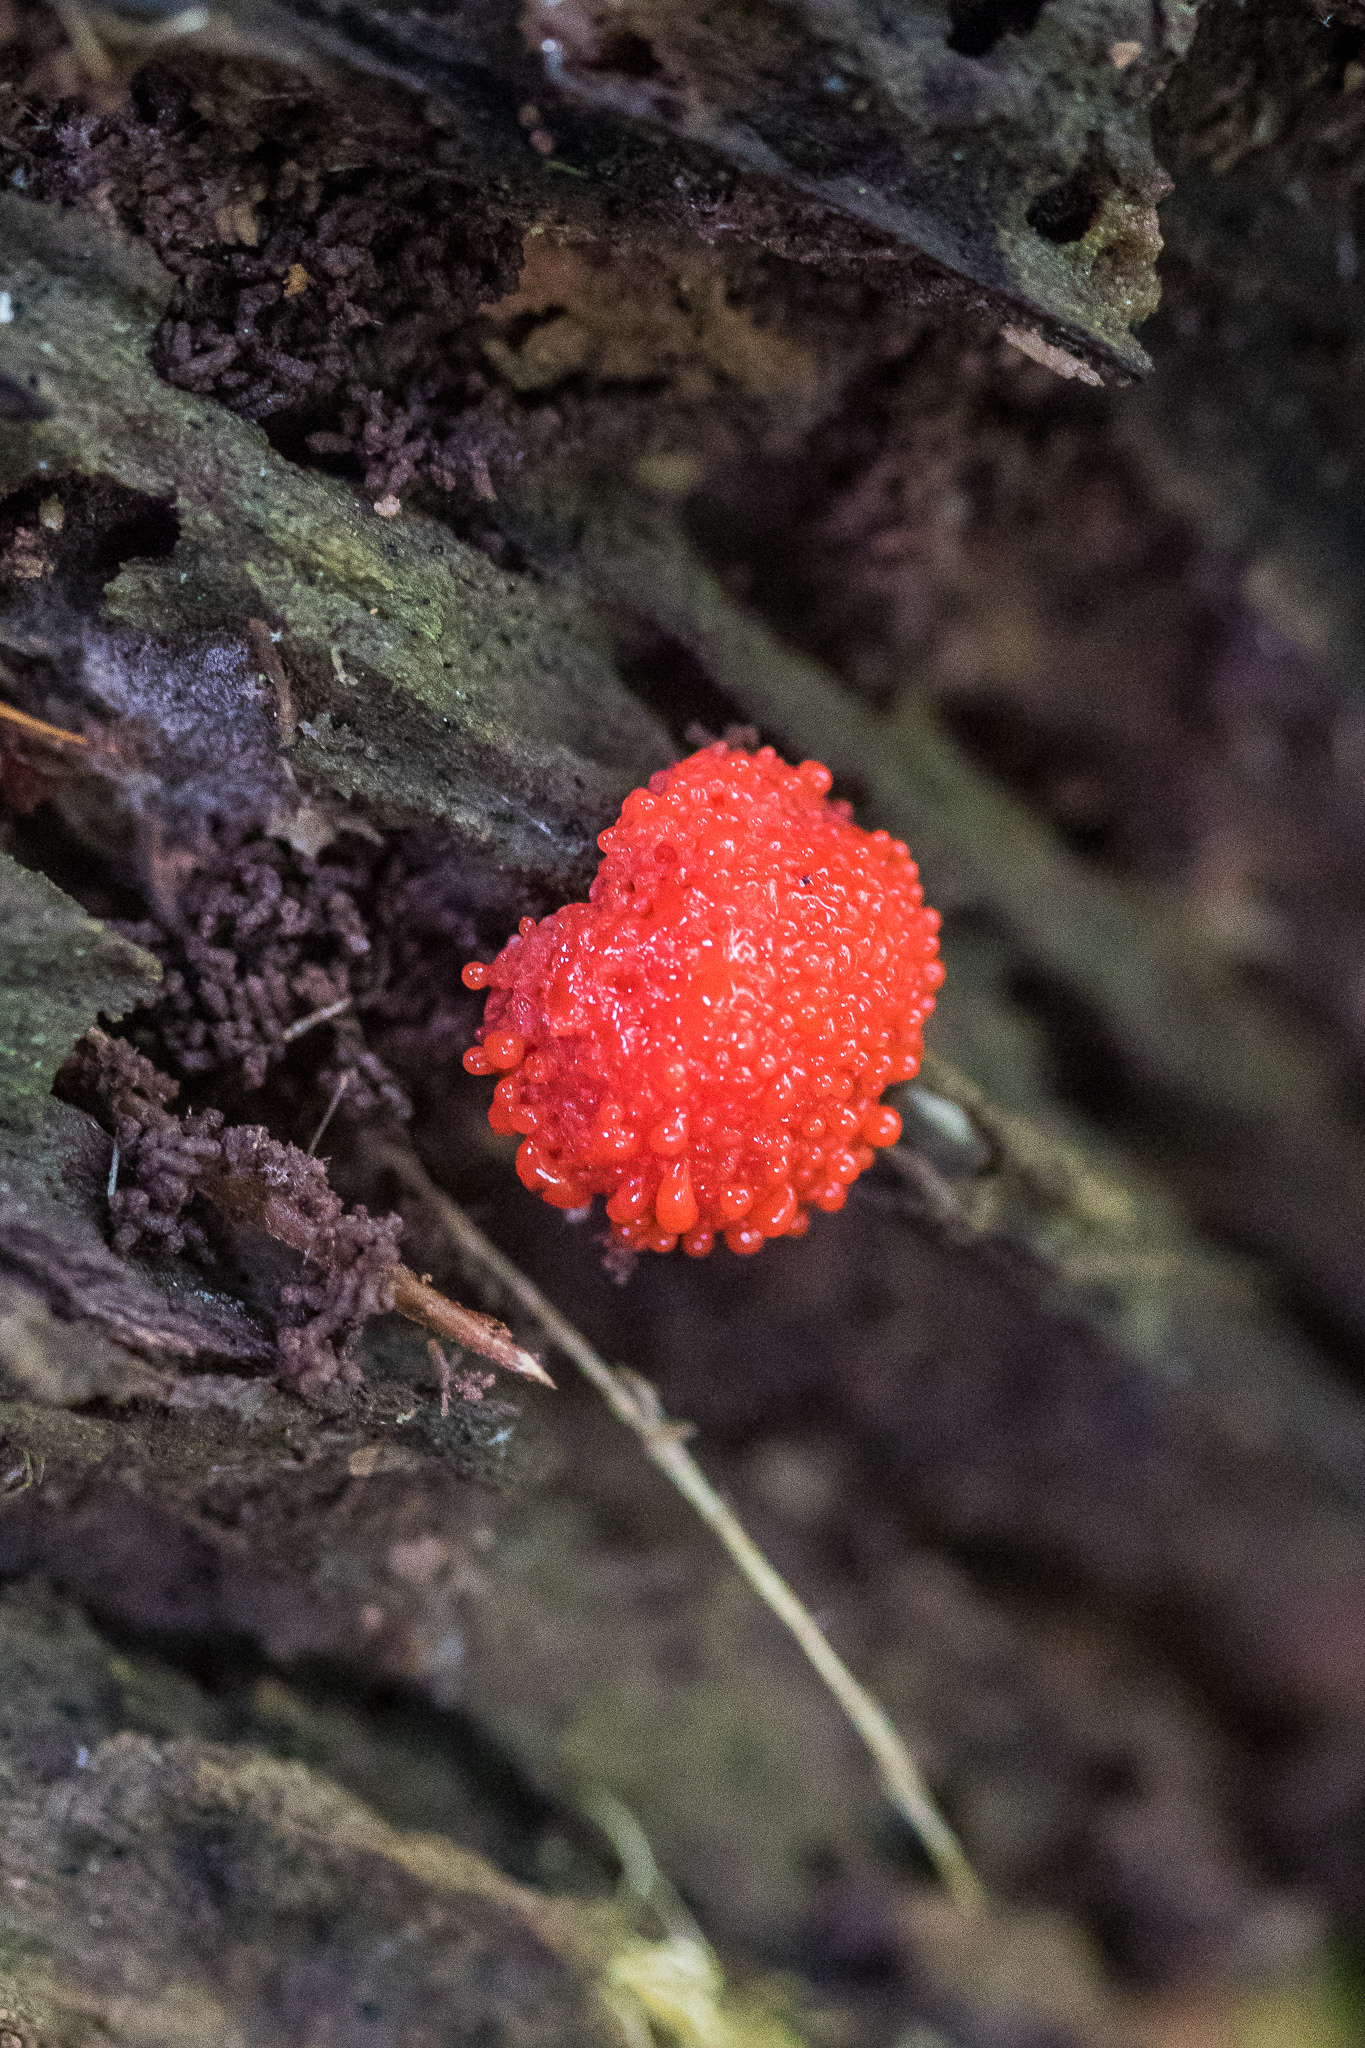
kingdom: Protozoa
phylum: Mycetozoa
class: Myxomycetes
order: Cribrariales
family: Tubiferaceae
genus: Tubifera
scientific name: Tubifera ferruginosa
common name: Red raspberry slime mold
